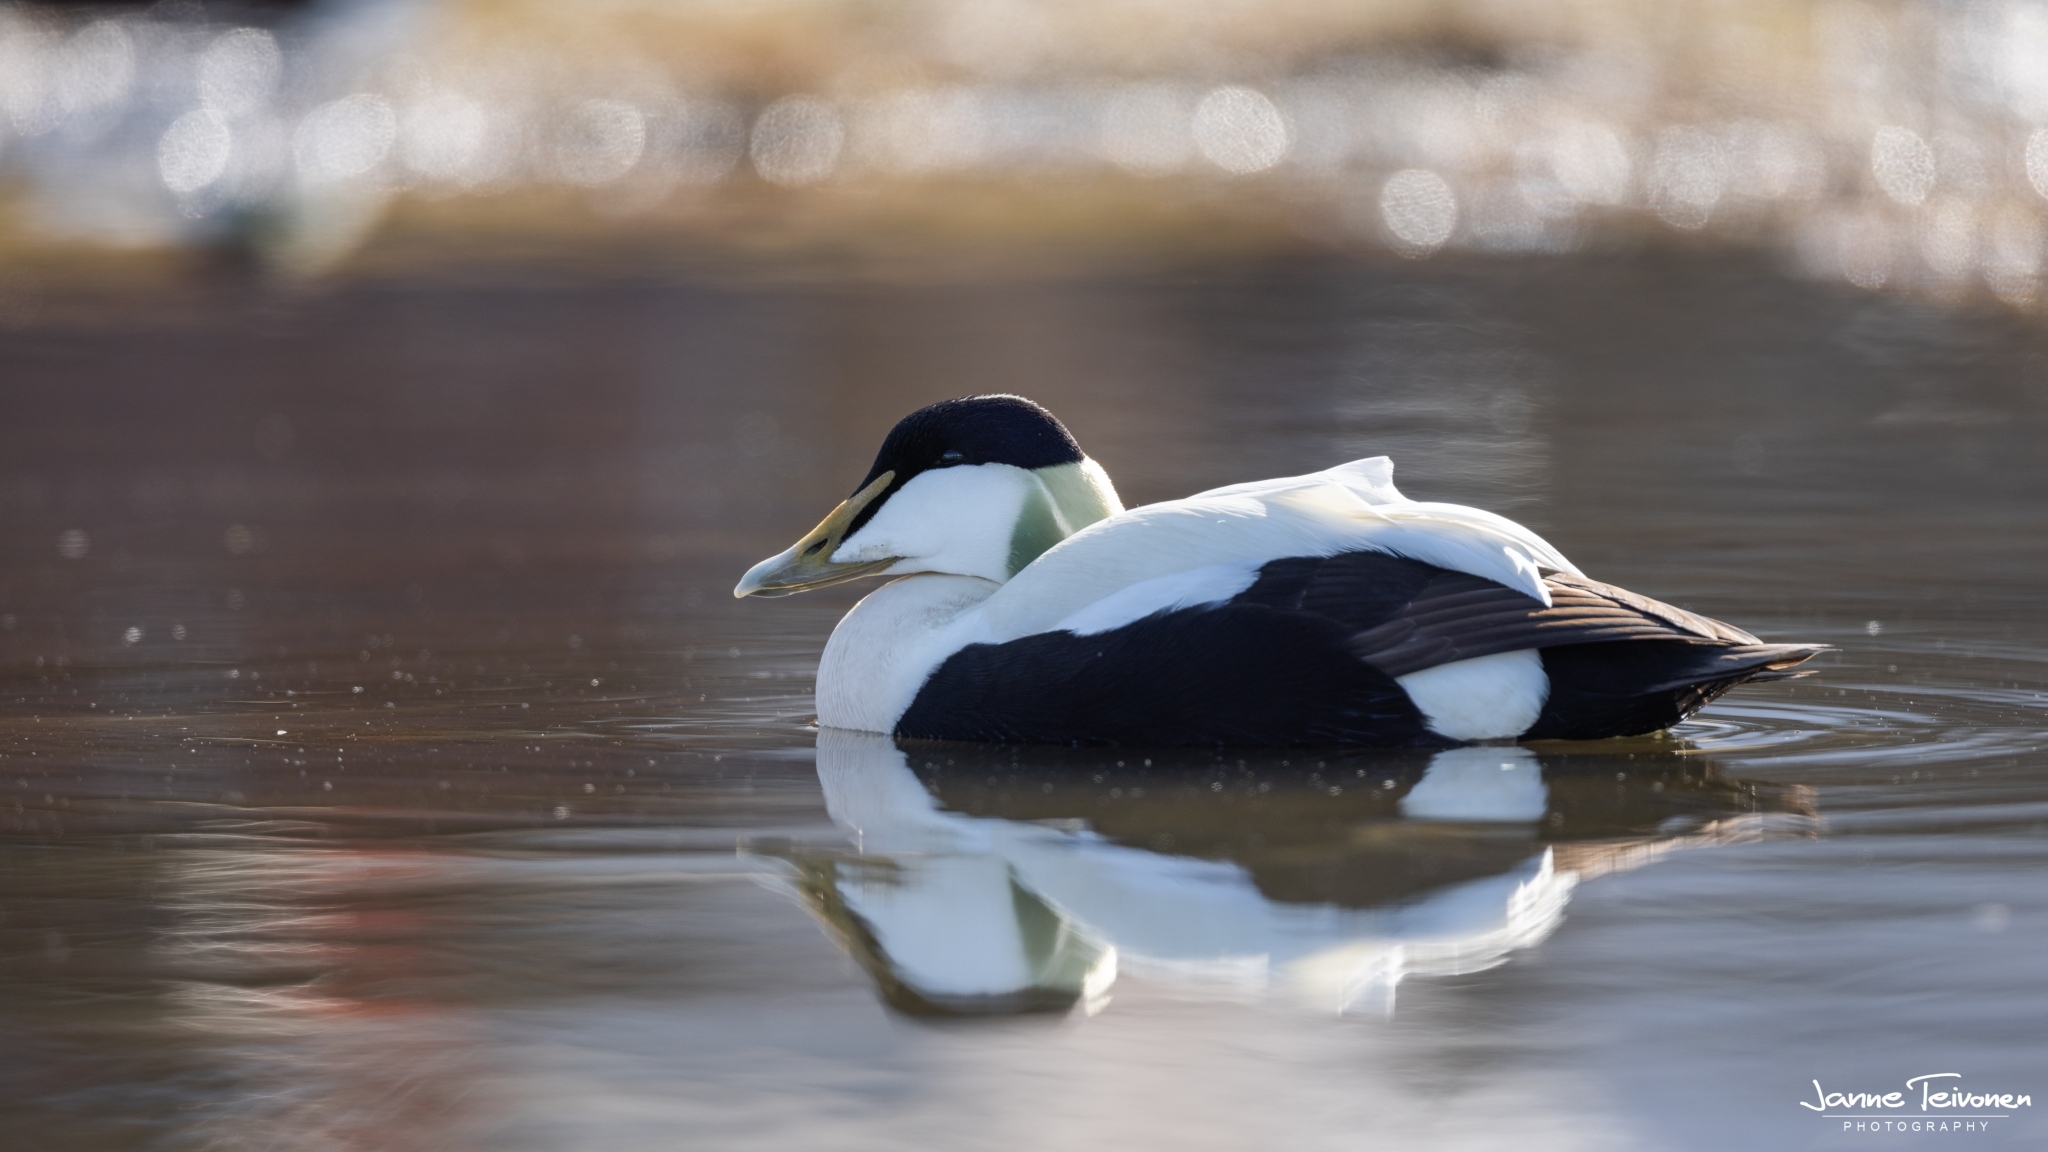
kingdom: Animalia
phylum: Chordata
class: Aves
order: Anseriformes
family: Anatidae
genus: Somateria
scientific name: Somateria mollissima
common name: Common eider
